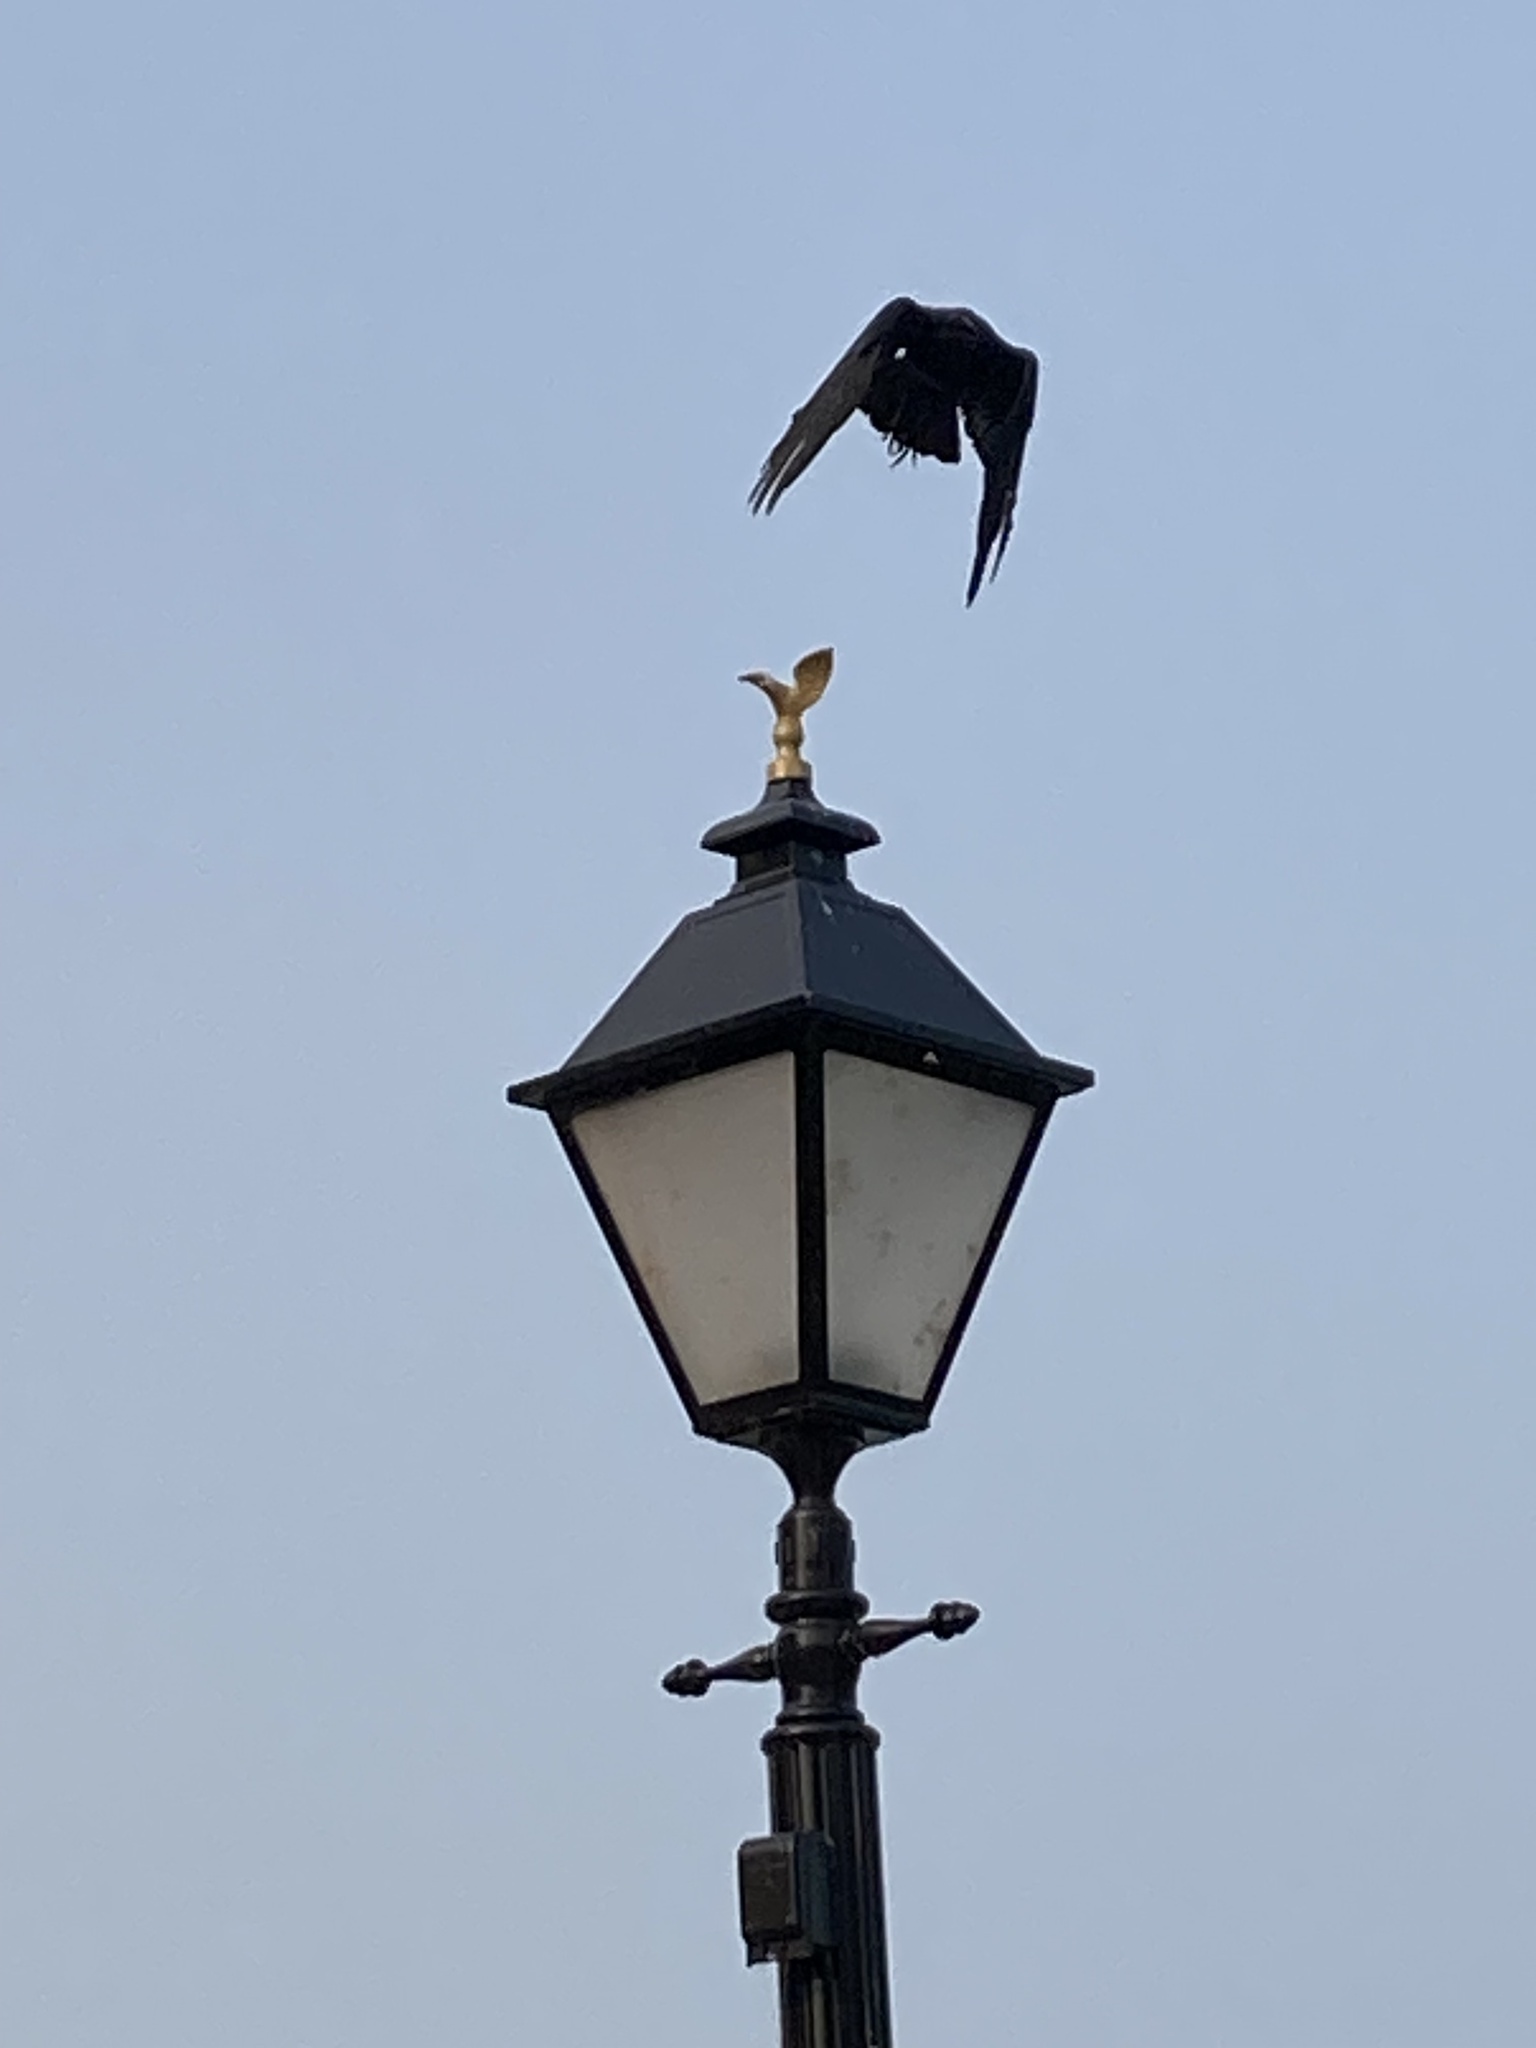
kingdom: Animalia
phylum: Chordata
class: Aves
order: Passeriformes
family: Corvidae
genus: Corvus
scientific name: Corvus brachyrhynchos
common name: American crow
